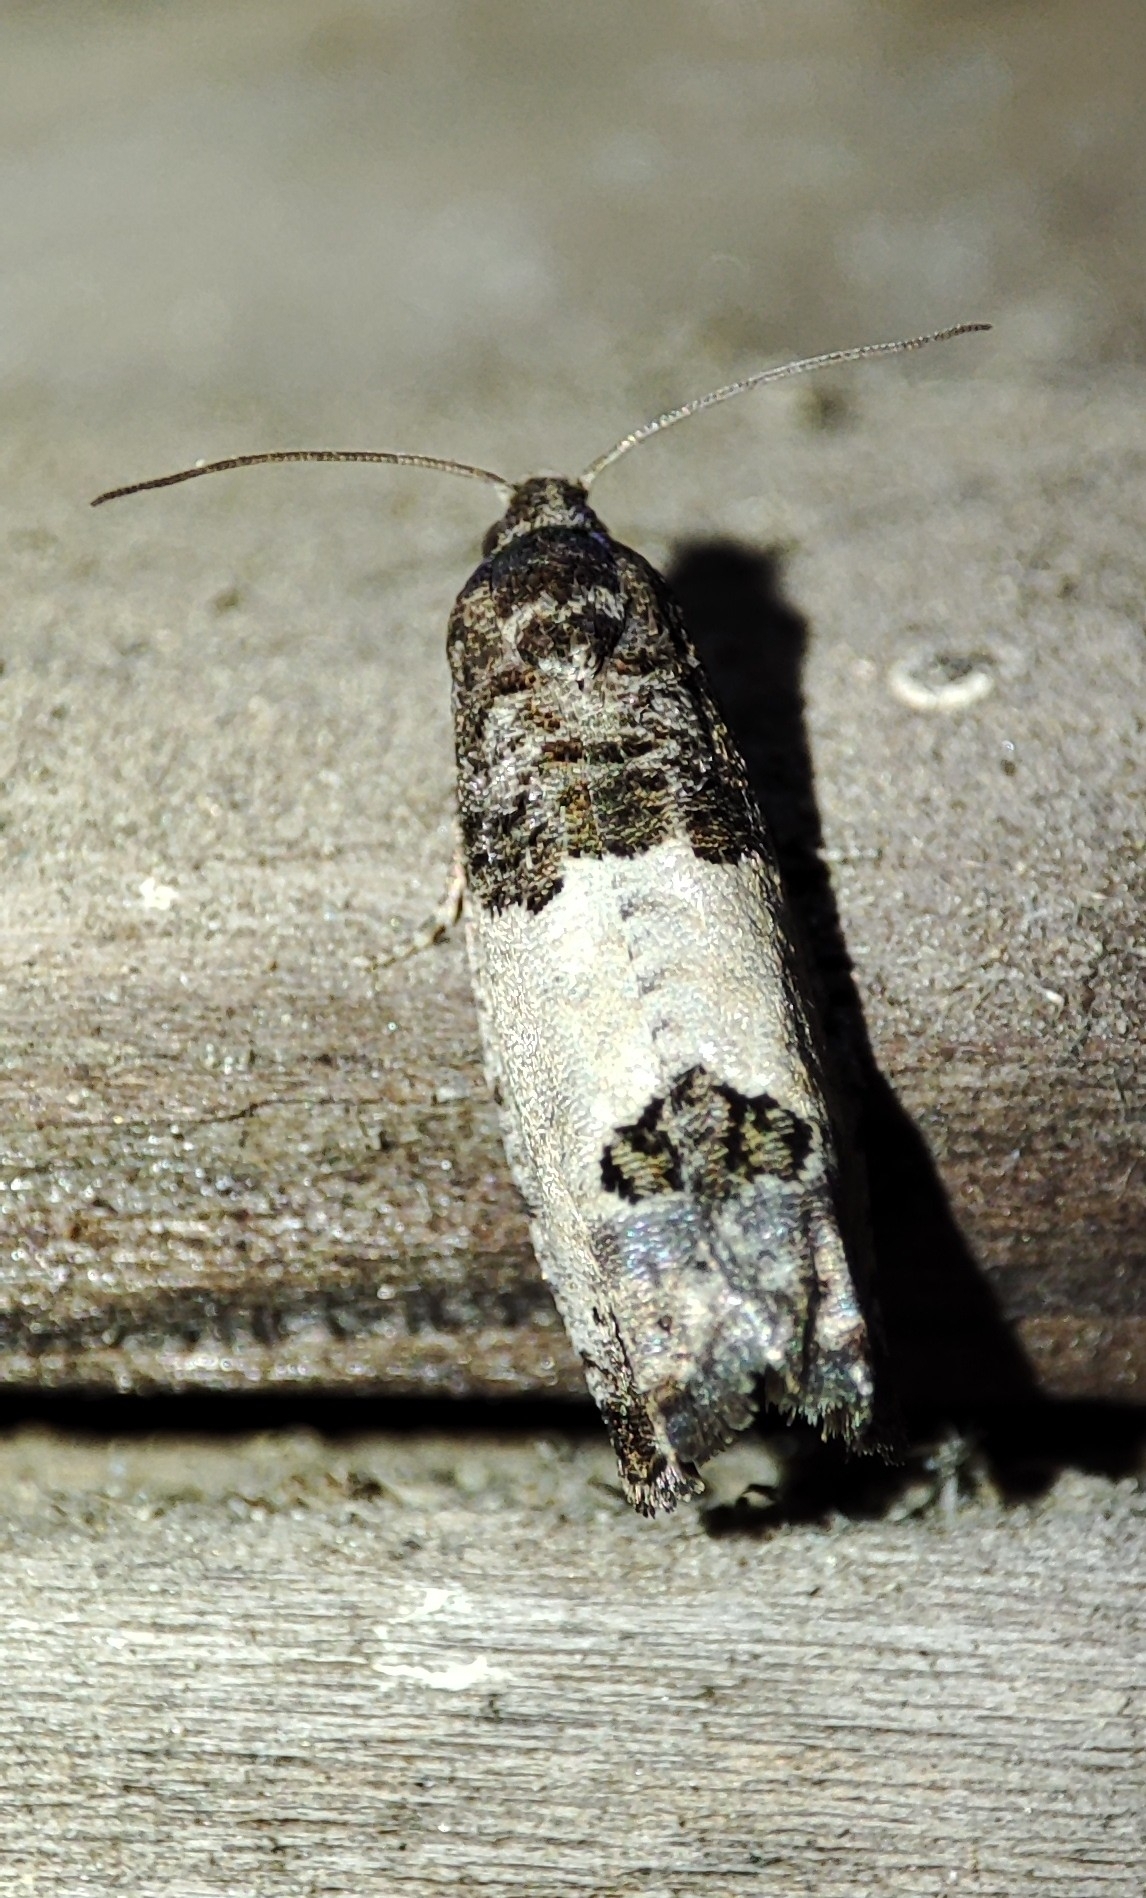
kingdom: Animalia
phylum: Arthropoda
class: Insecta
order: Lepidoptera
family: Tortricidae
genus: Spilonota
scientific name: Spilonota ocellana
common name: Bud moth
